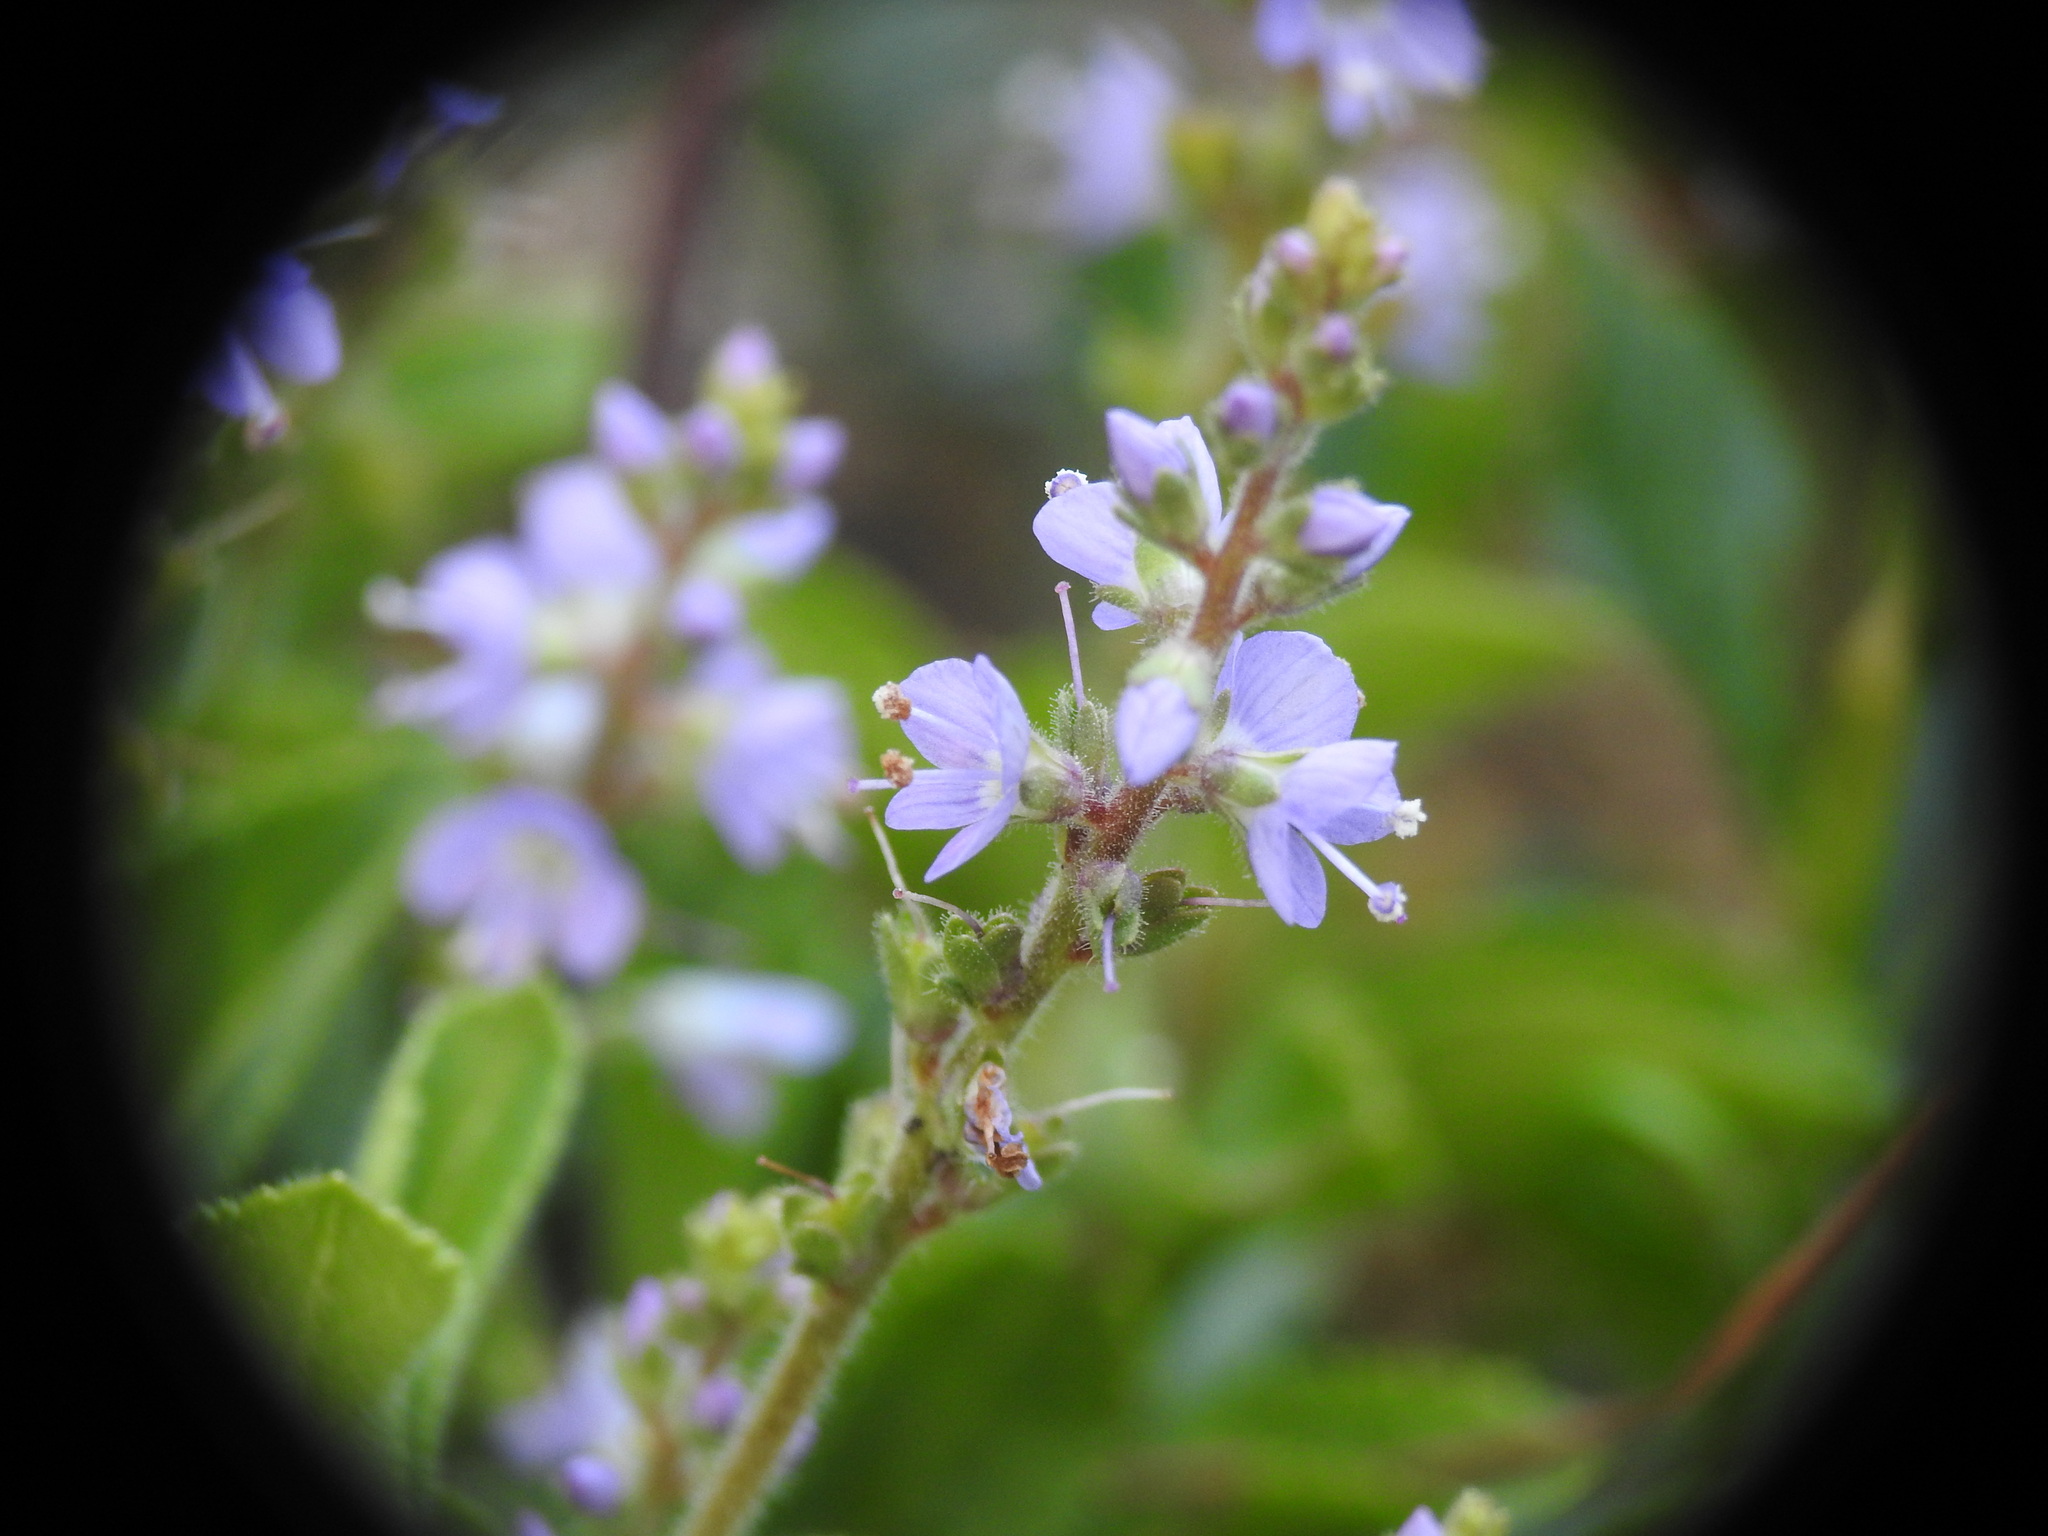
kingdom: Plantae
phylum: Tracheophyta
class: Magnoliopsida
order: Lamiales
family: Plantaginaceae
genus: Veronica
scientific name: Veronica officinalis
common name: Common speedwell
